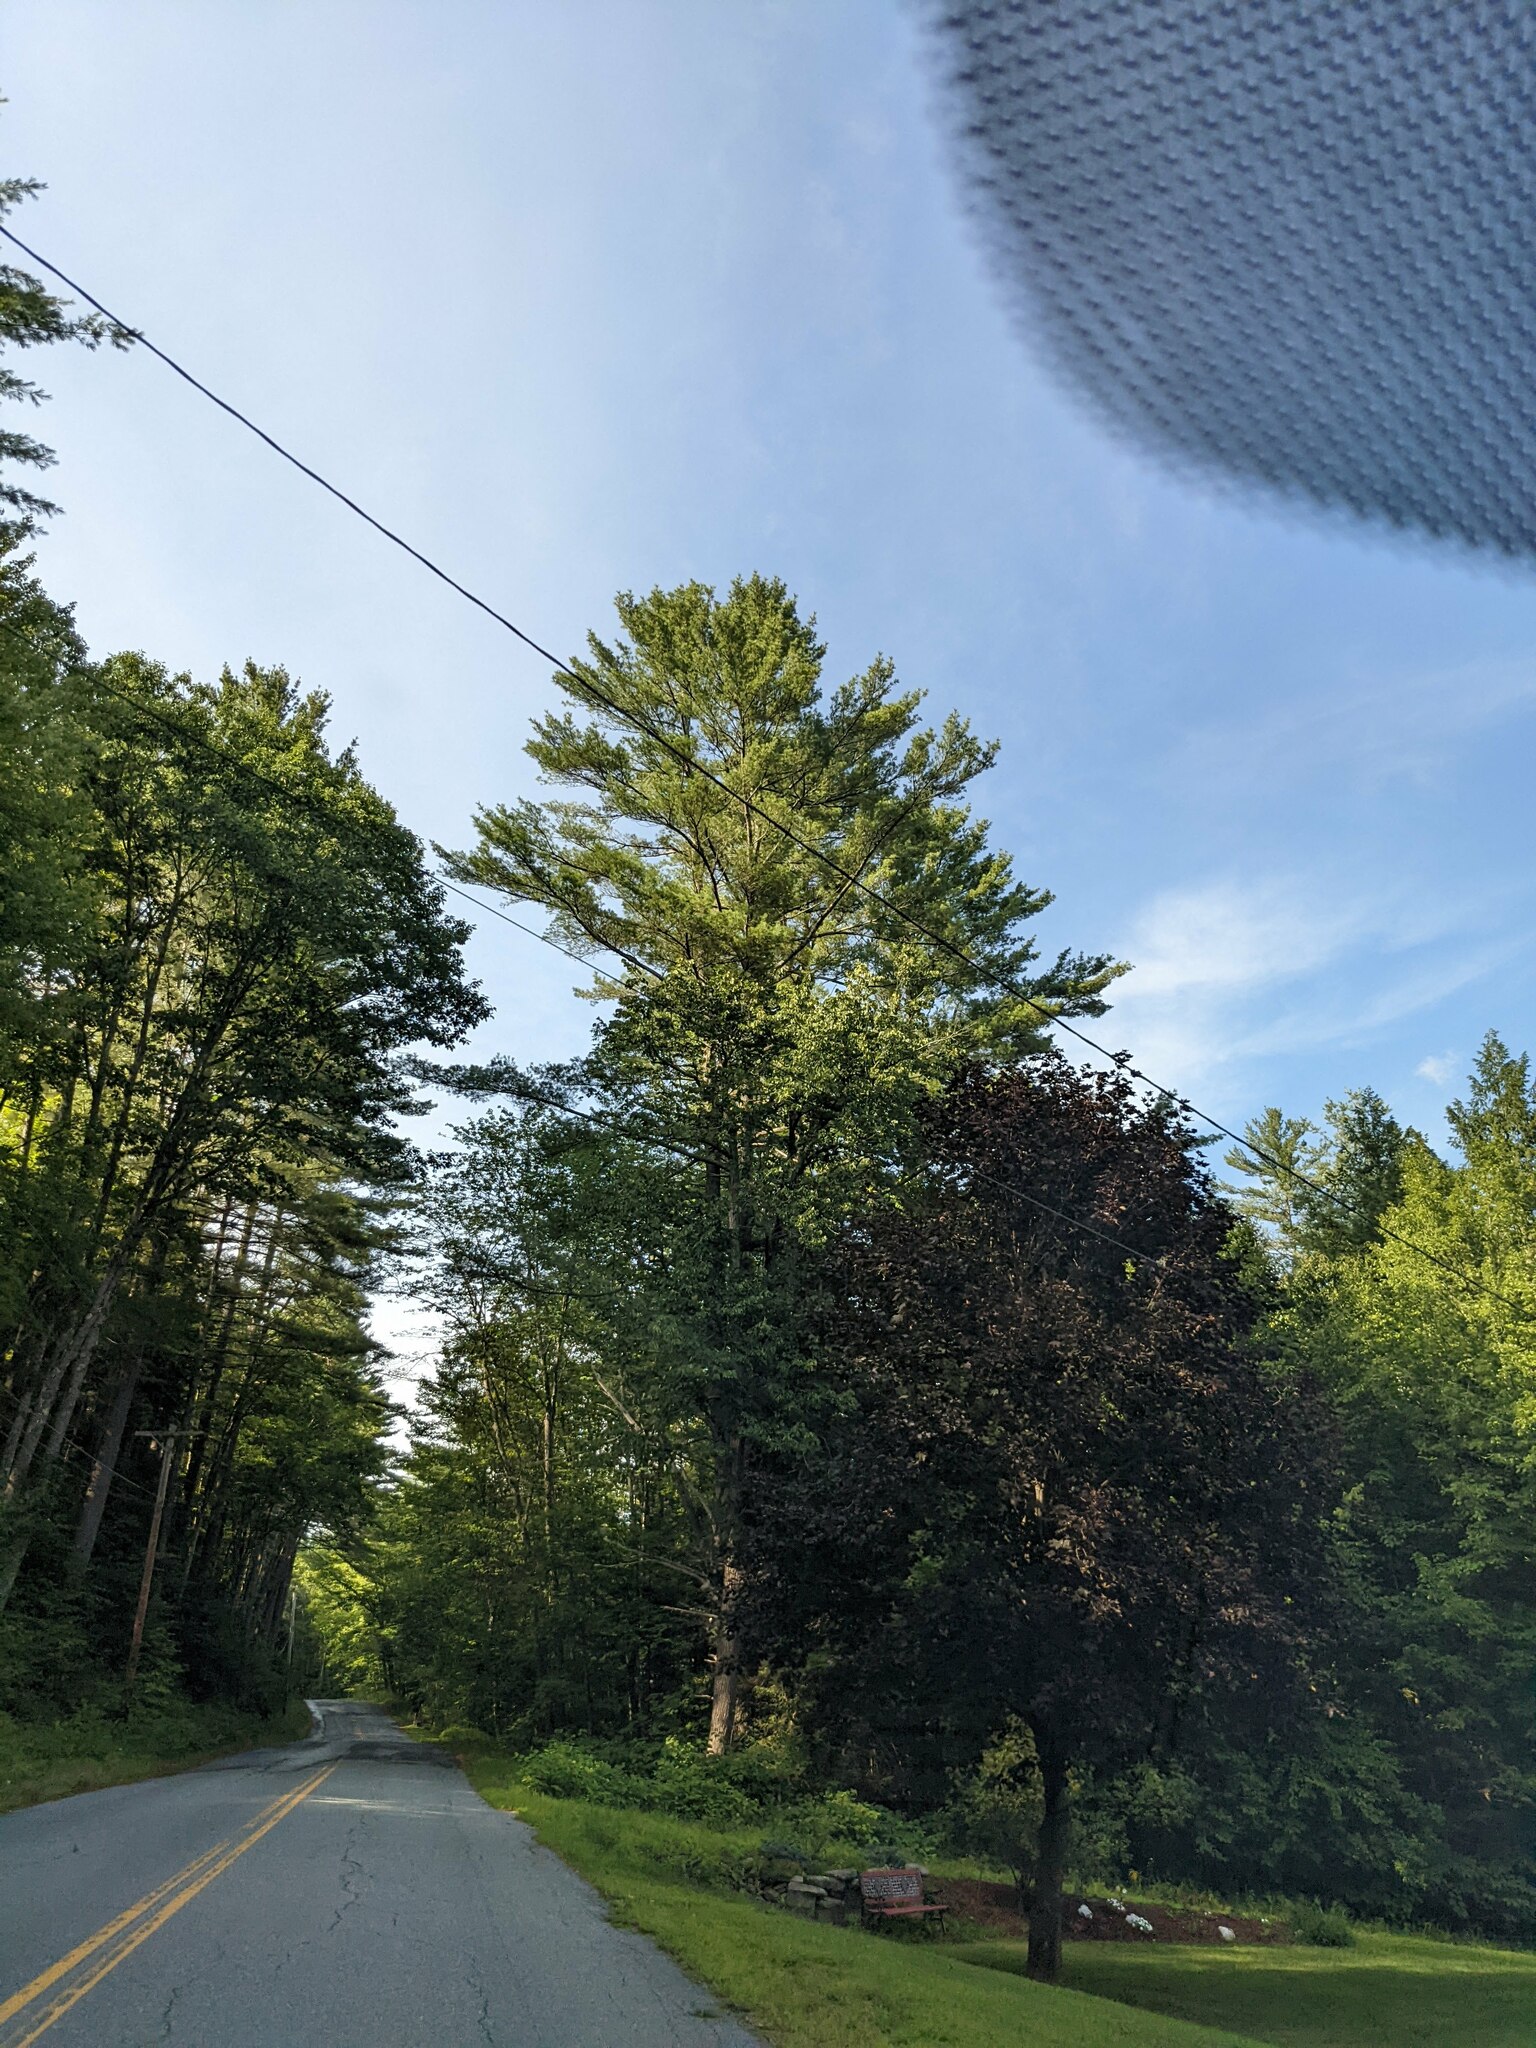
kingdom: Plantae
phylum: Tracheophyta
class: Pinopsida
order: Pinales
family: Pinaceae
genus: Pinus
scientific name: Pinus strobus
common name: Weymouth pine
